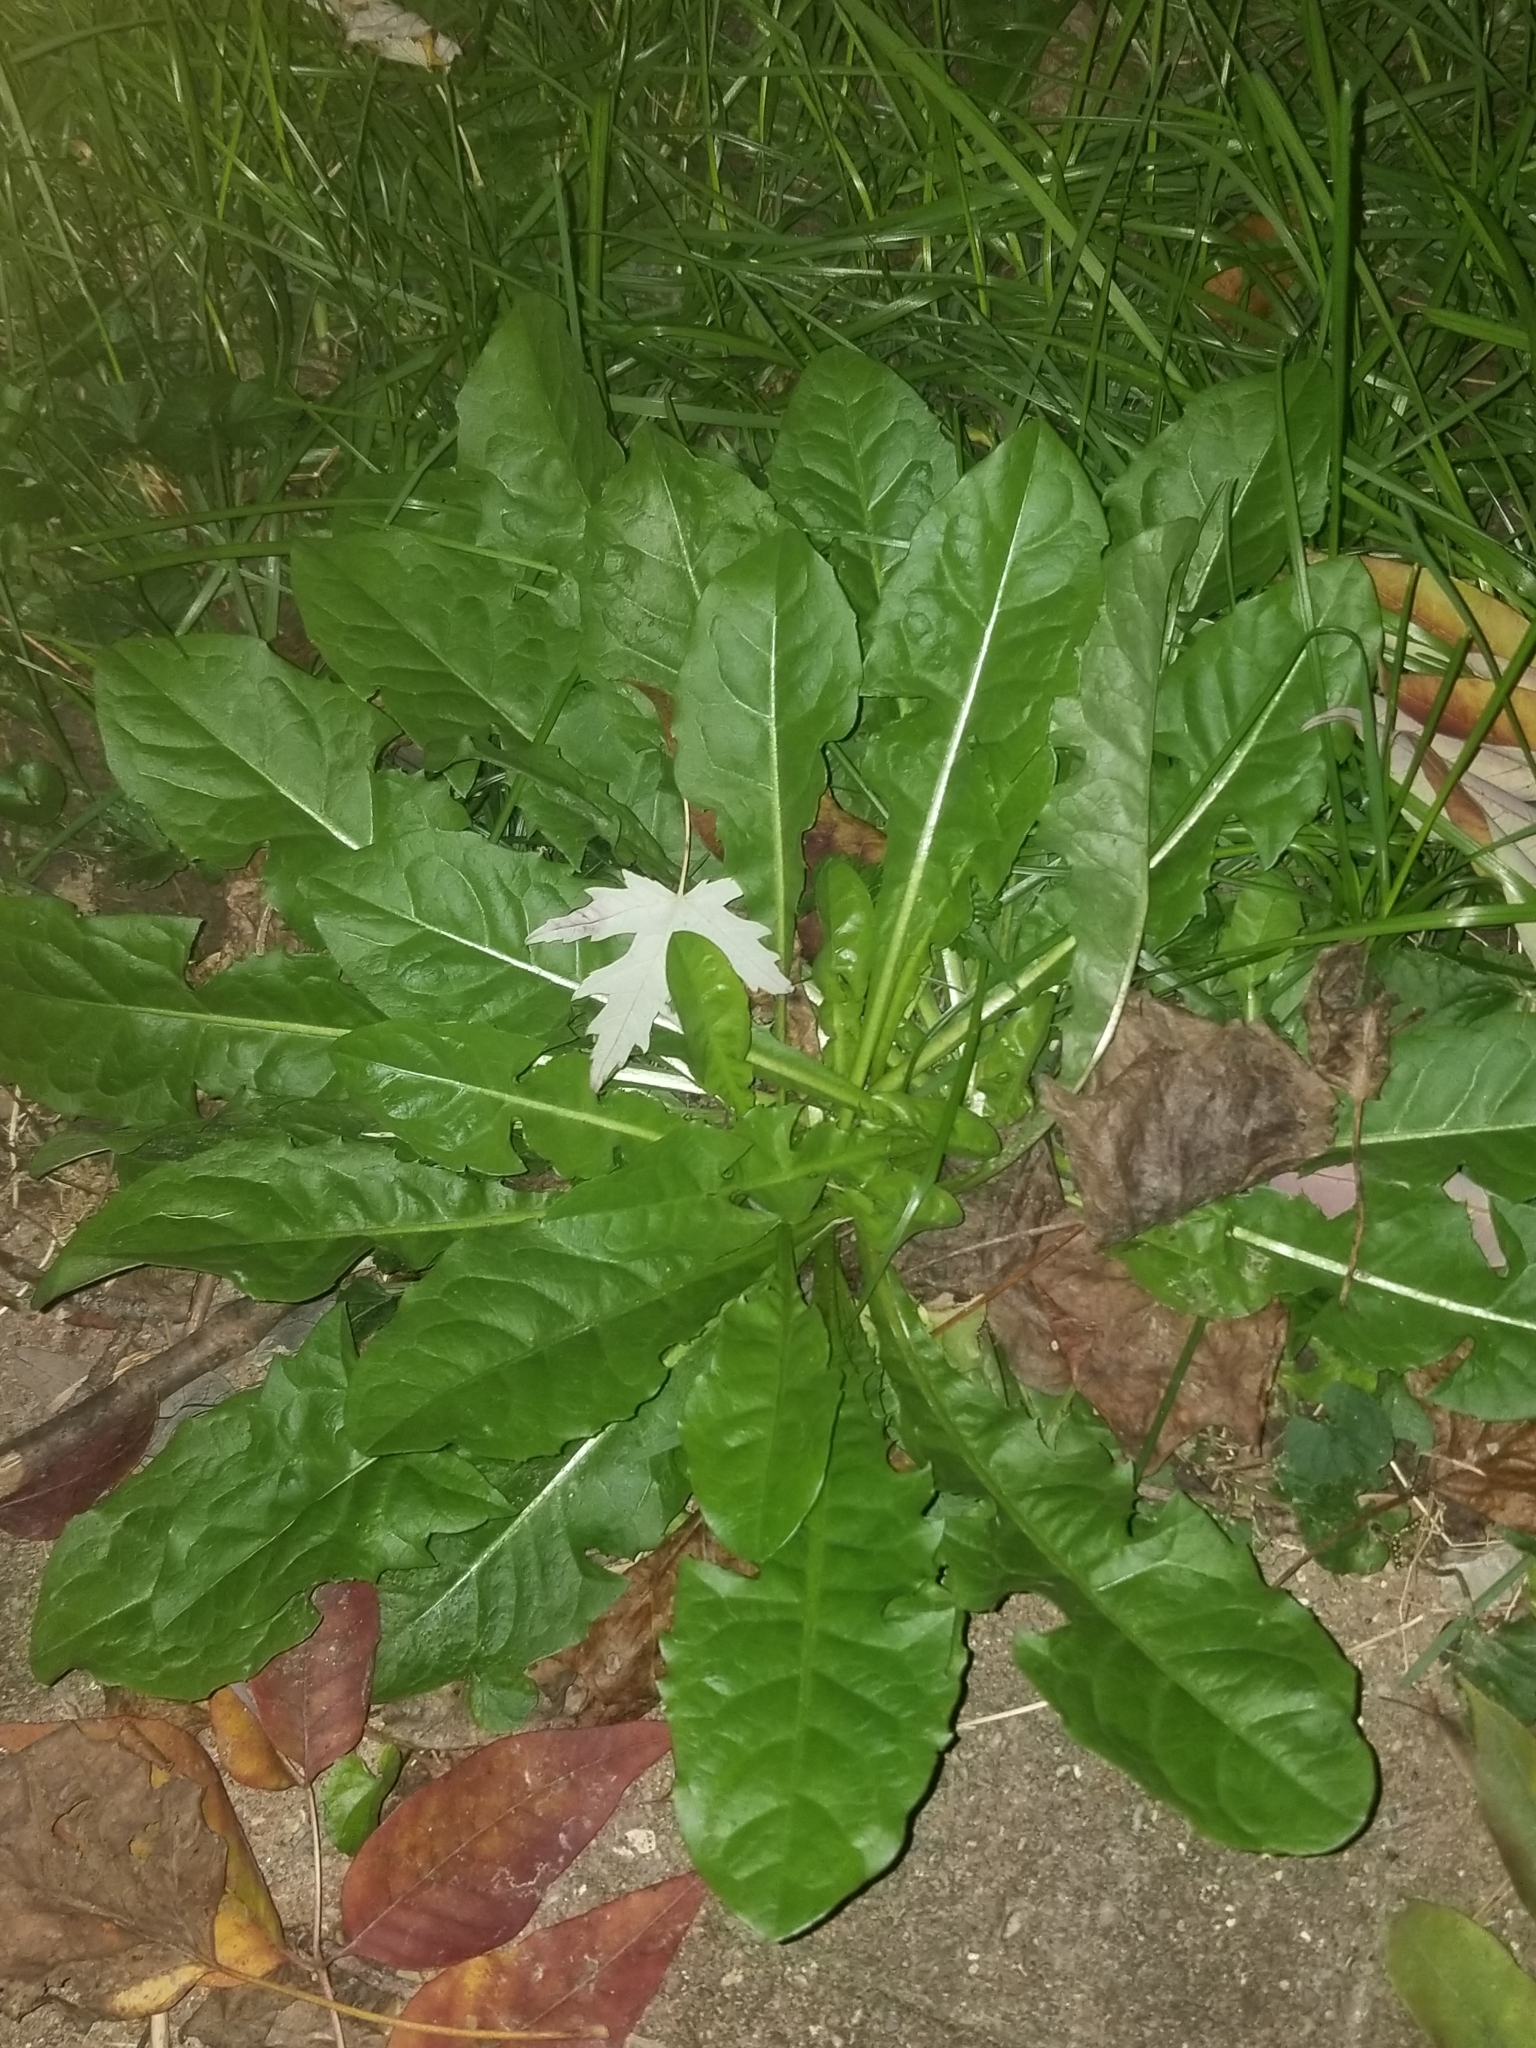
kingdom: Plantae
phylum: Tracheophyta
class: Magnoliopsida
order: Asterales
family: Asteraceae
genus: Taraxacum
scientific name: Taraxacum officinale
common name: Common dandelion
